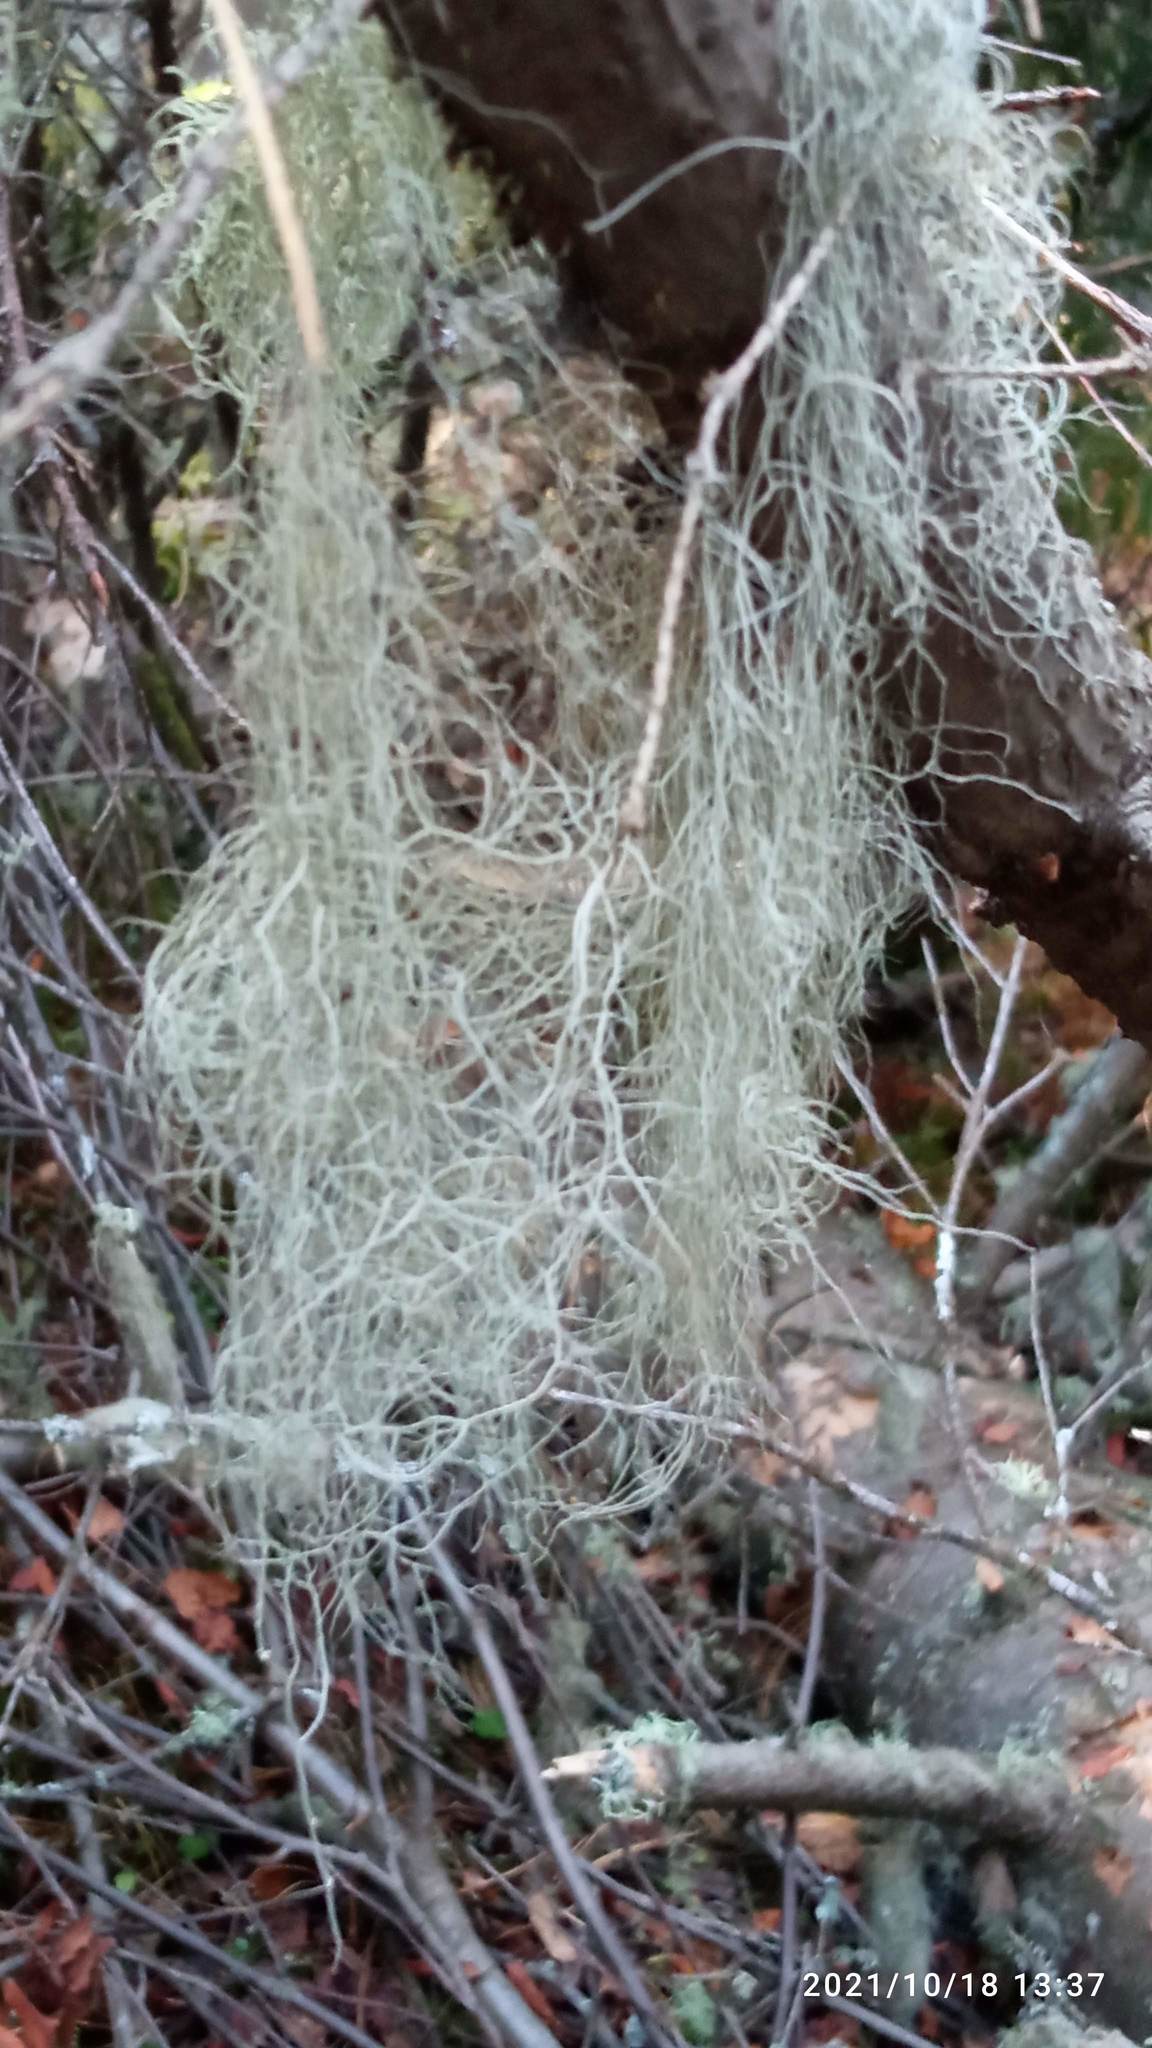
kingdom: Fungi
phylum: Ascomycota
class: Lecanoromycetes
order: Lecanorales
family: Parmeliaceae
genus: Bryoria
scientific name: Bryoria fuscescens
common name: Pale-footed horsehair lichen
